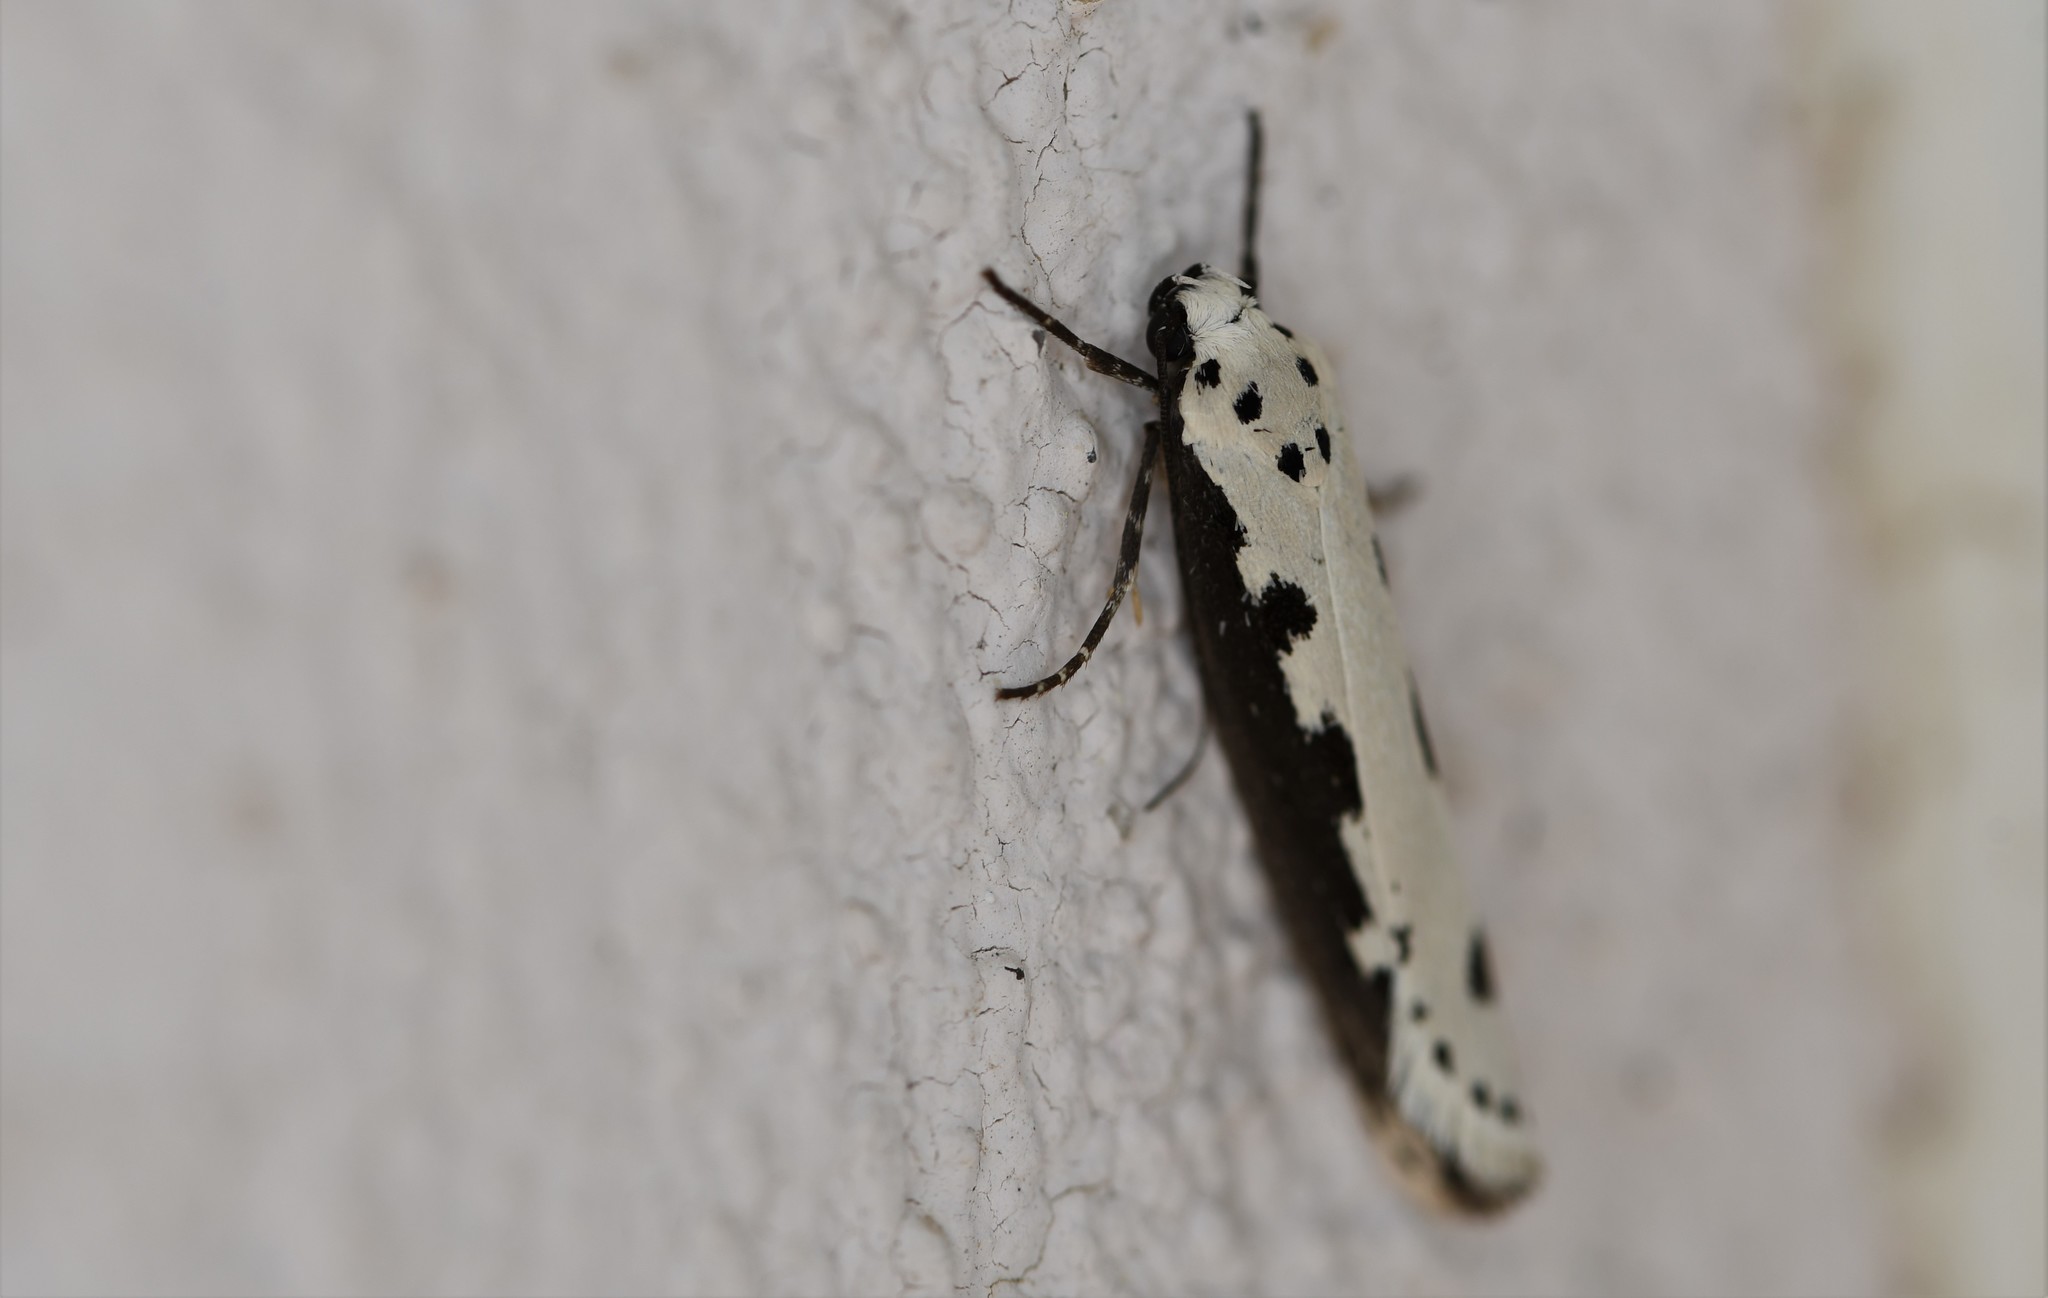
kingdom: Animalia
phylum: Arthropoda
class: Insecta
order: Lepidoptera
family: Ethmiidae
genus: Ethmia
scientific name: Ethmia bipunctella
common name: Bordered ermel
